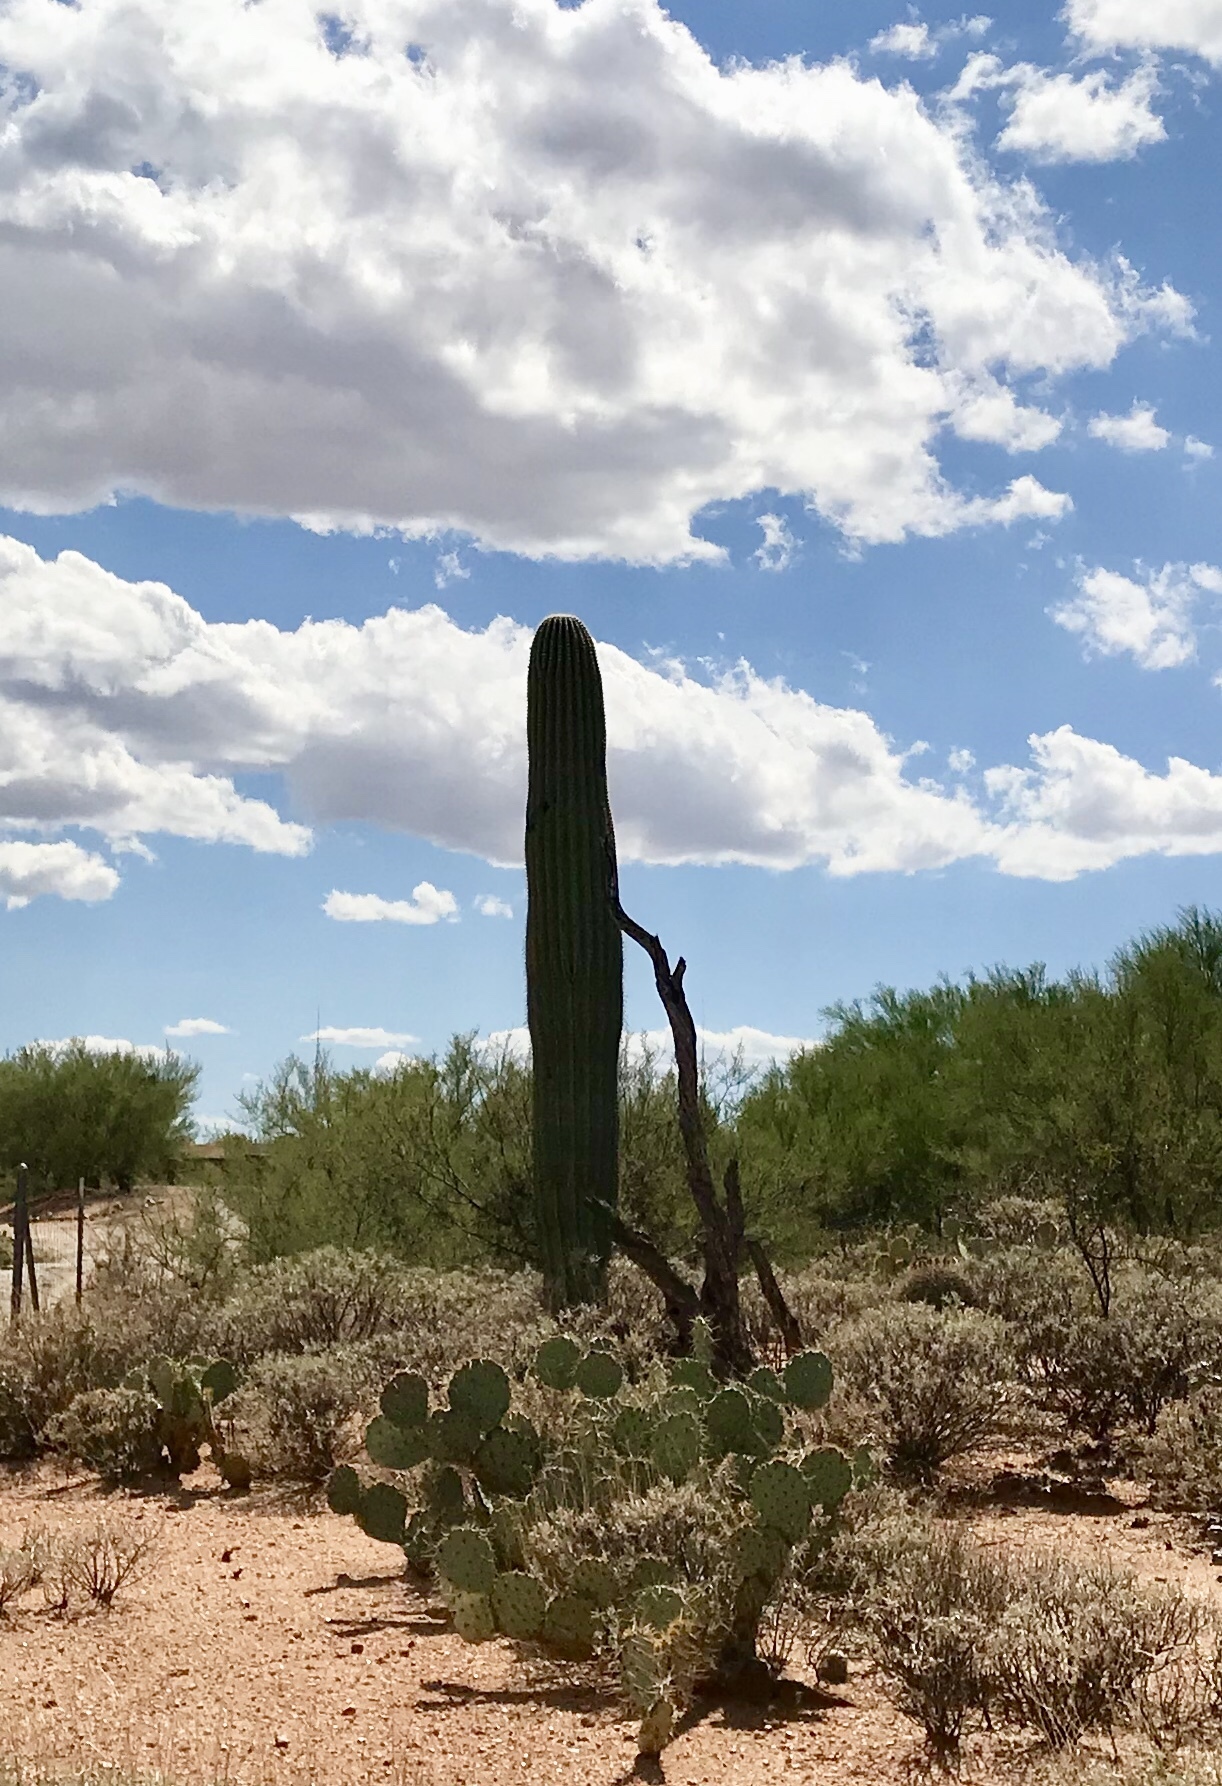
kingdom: Plantae
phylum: Tracheophyta
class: Magnoliopsida
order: Caryophyllales
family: Cactaceae
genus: Carnegiea
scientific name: Carnegiea gigantea
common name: Saguaro
